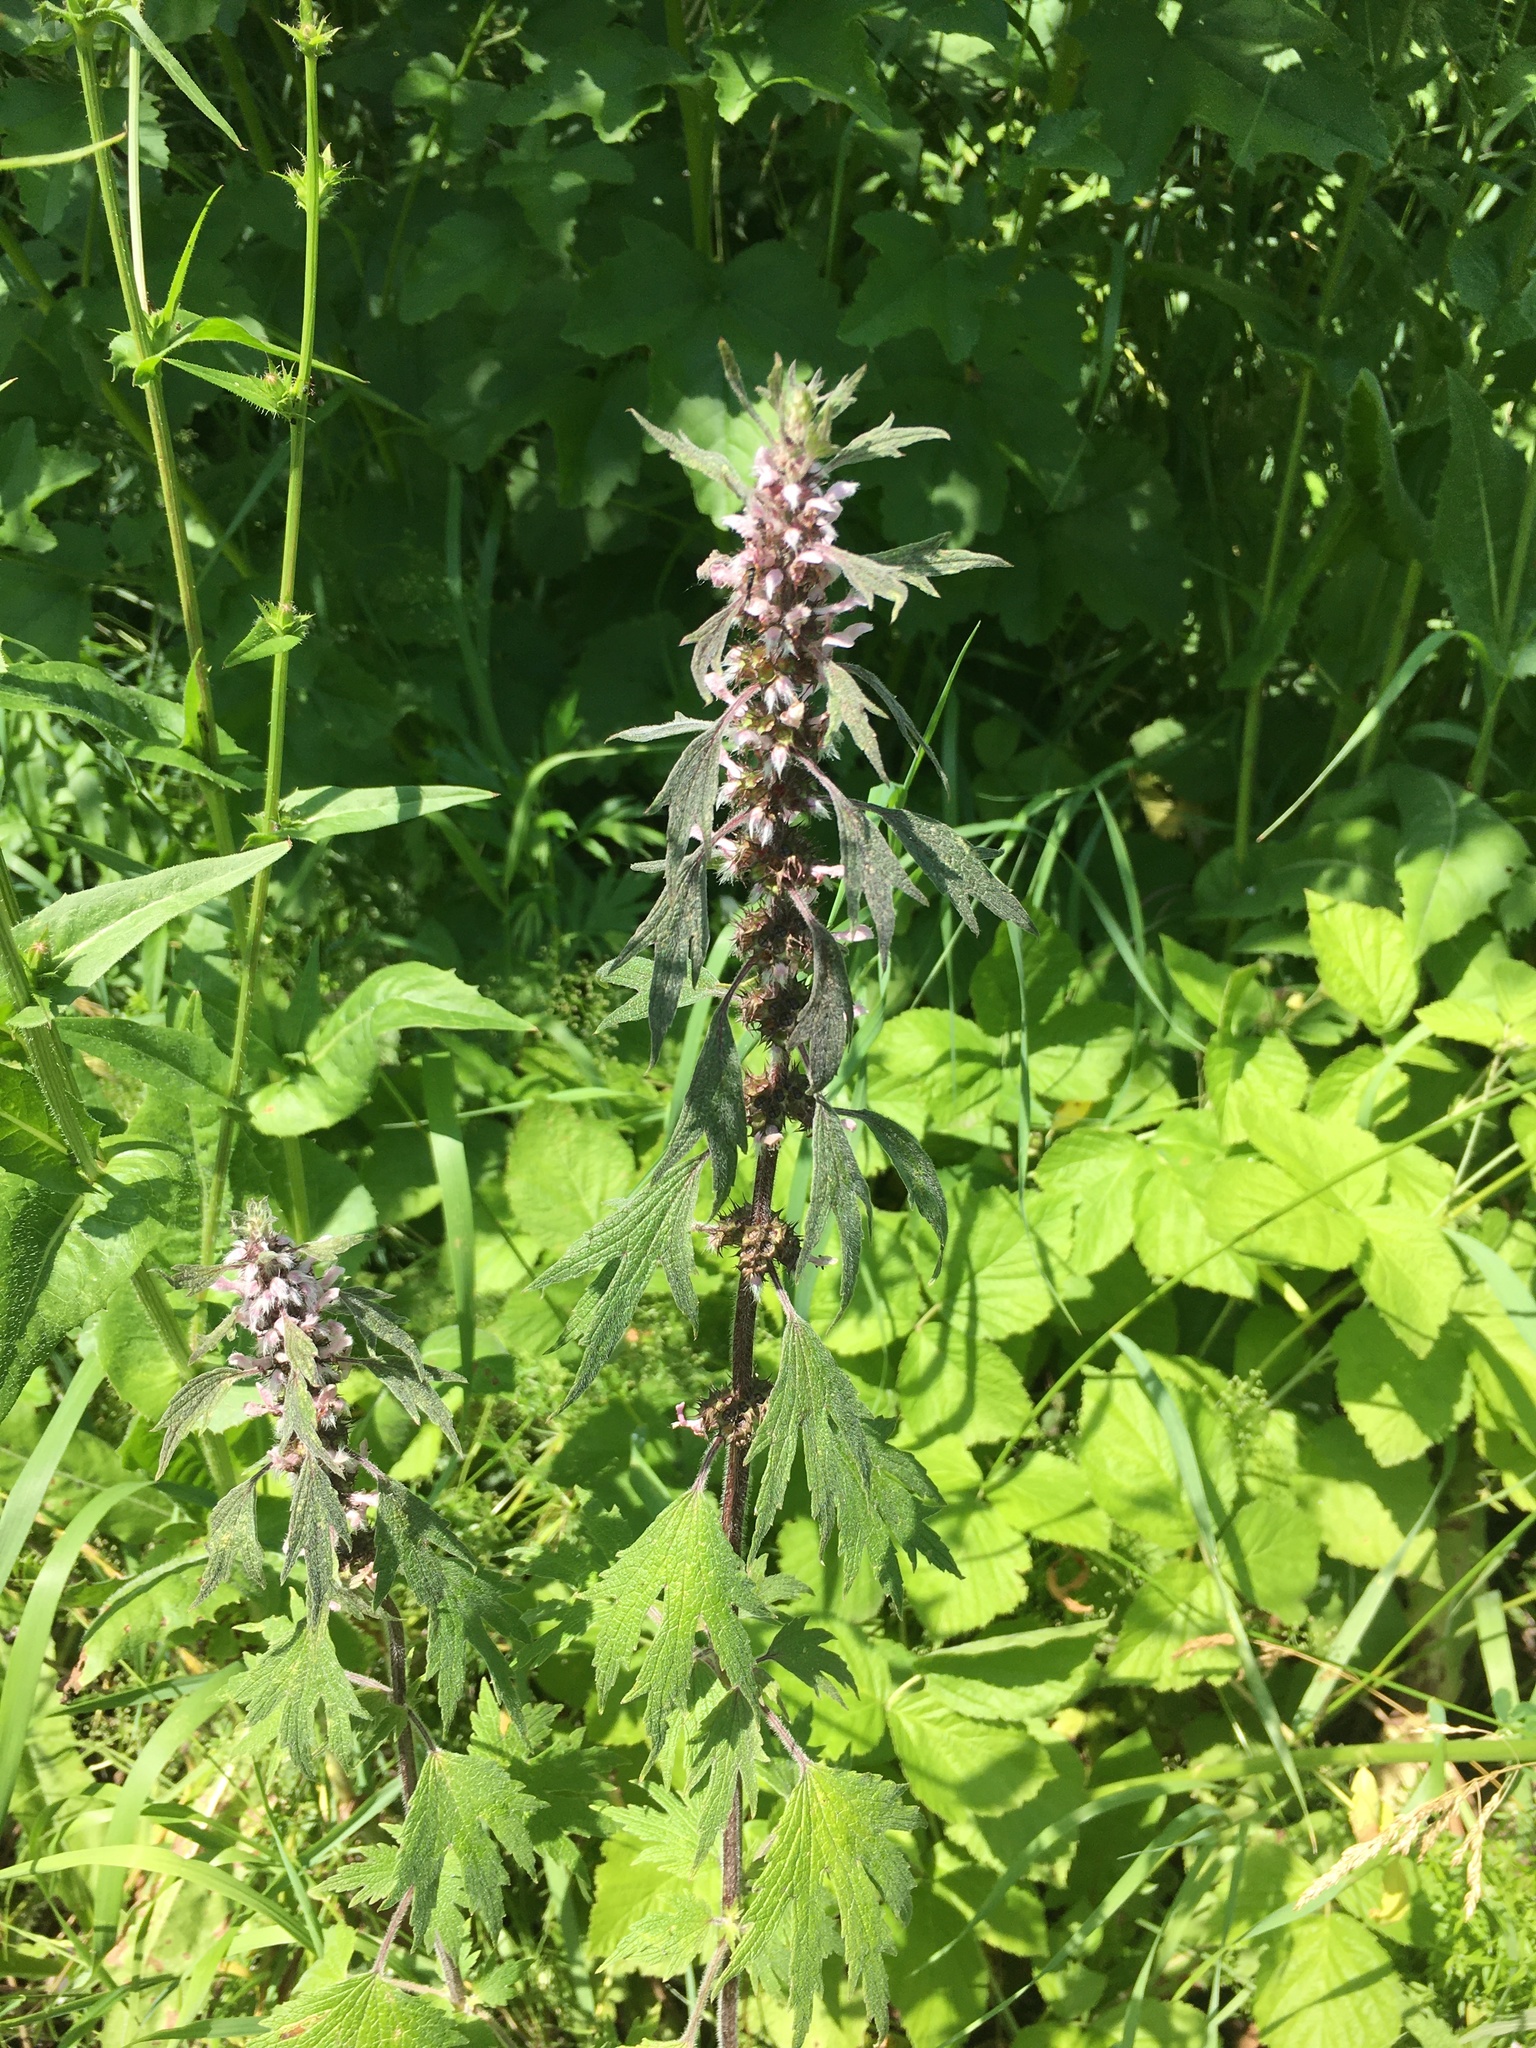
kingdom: Plantae
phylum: Tracheophyta
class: Magnoliopsida
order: Lamiales
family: Lamiaceae
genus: Leonurus
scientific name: Leonurus quinquelobatus
